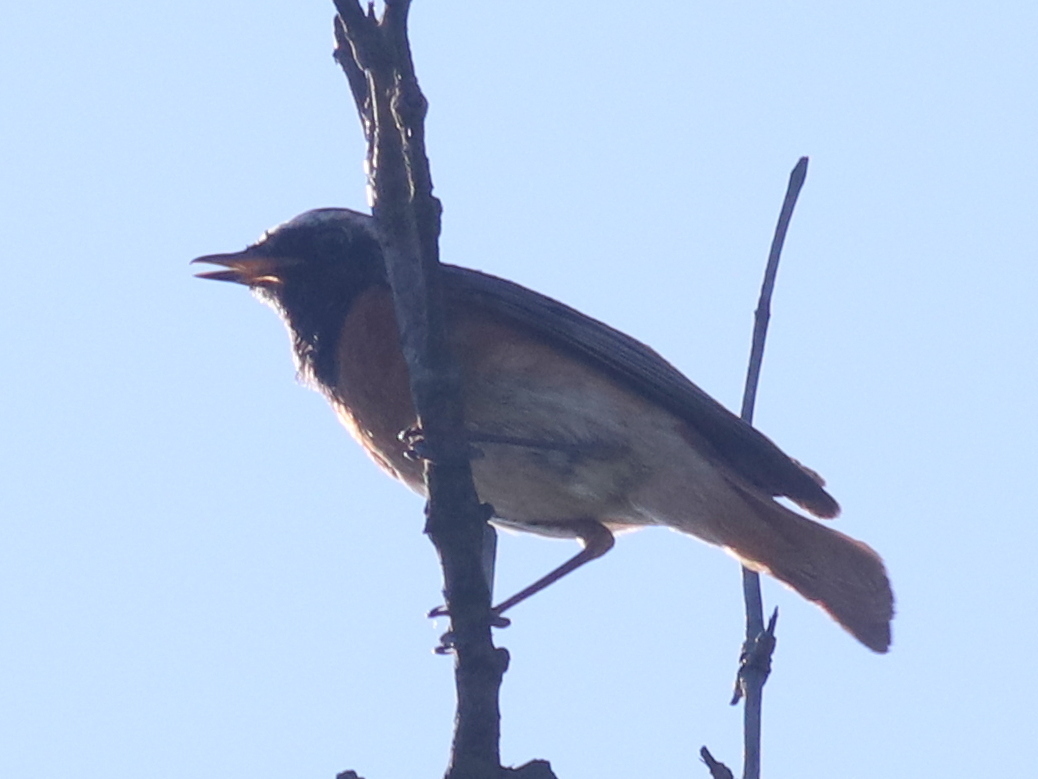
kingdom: Animalia
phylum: Chordata
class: Aves
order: Passeriformes
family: Muscicapidae
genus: Phoenicurus
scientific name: Phoenicurus phoenicurus
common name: Common redstart
